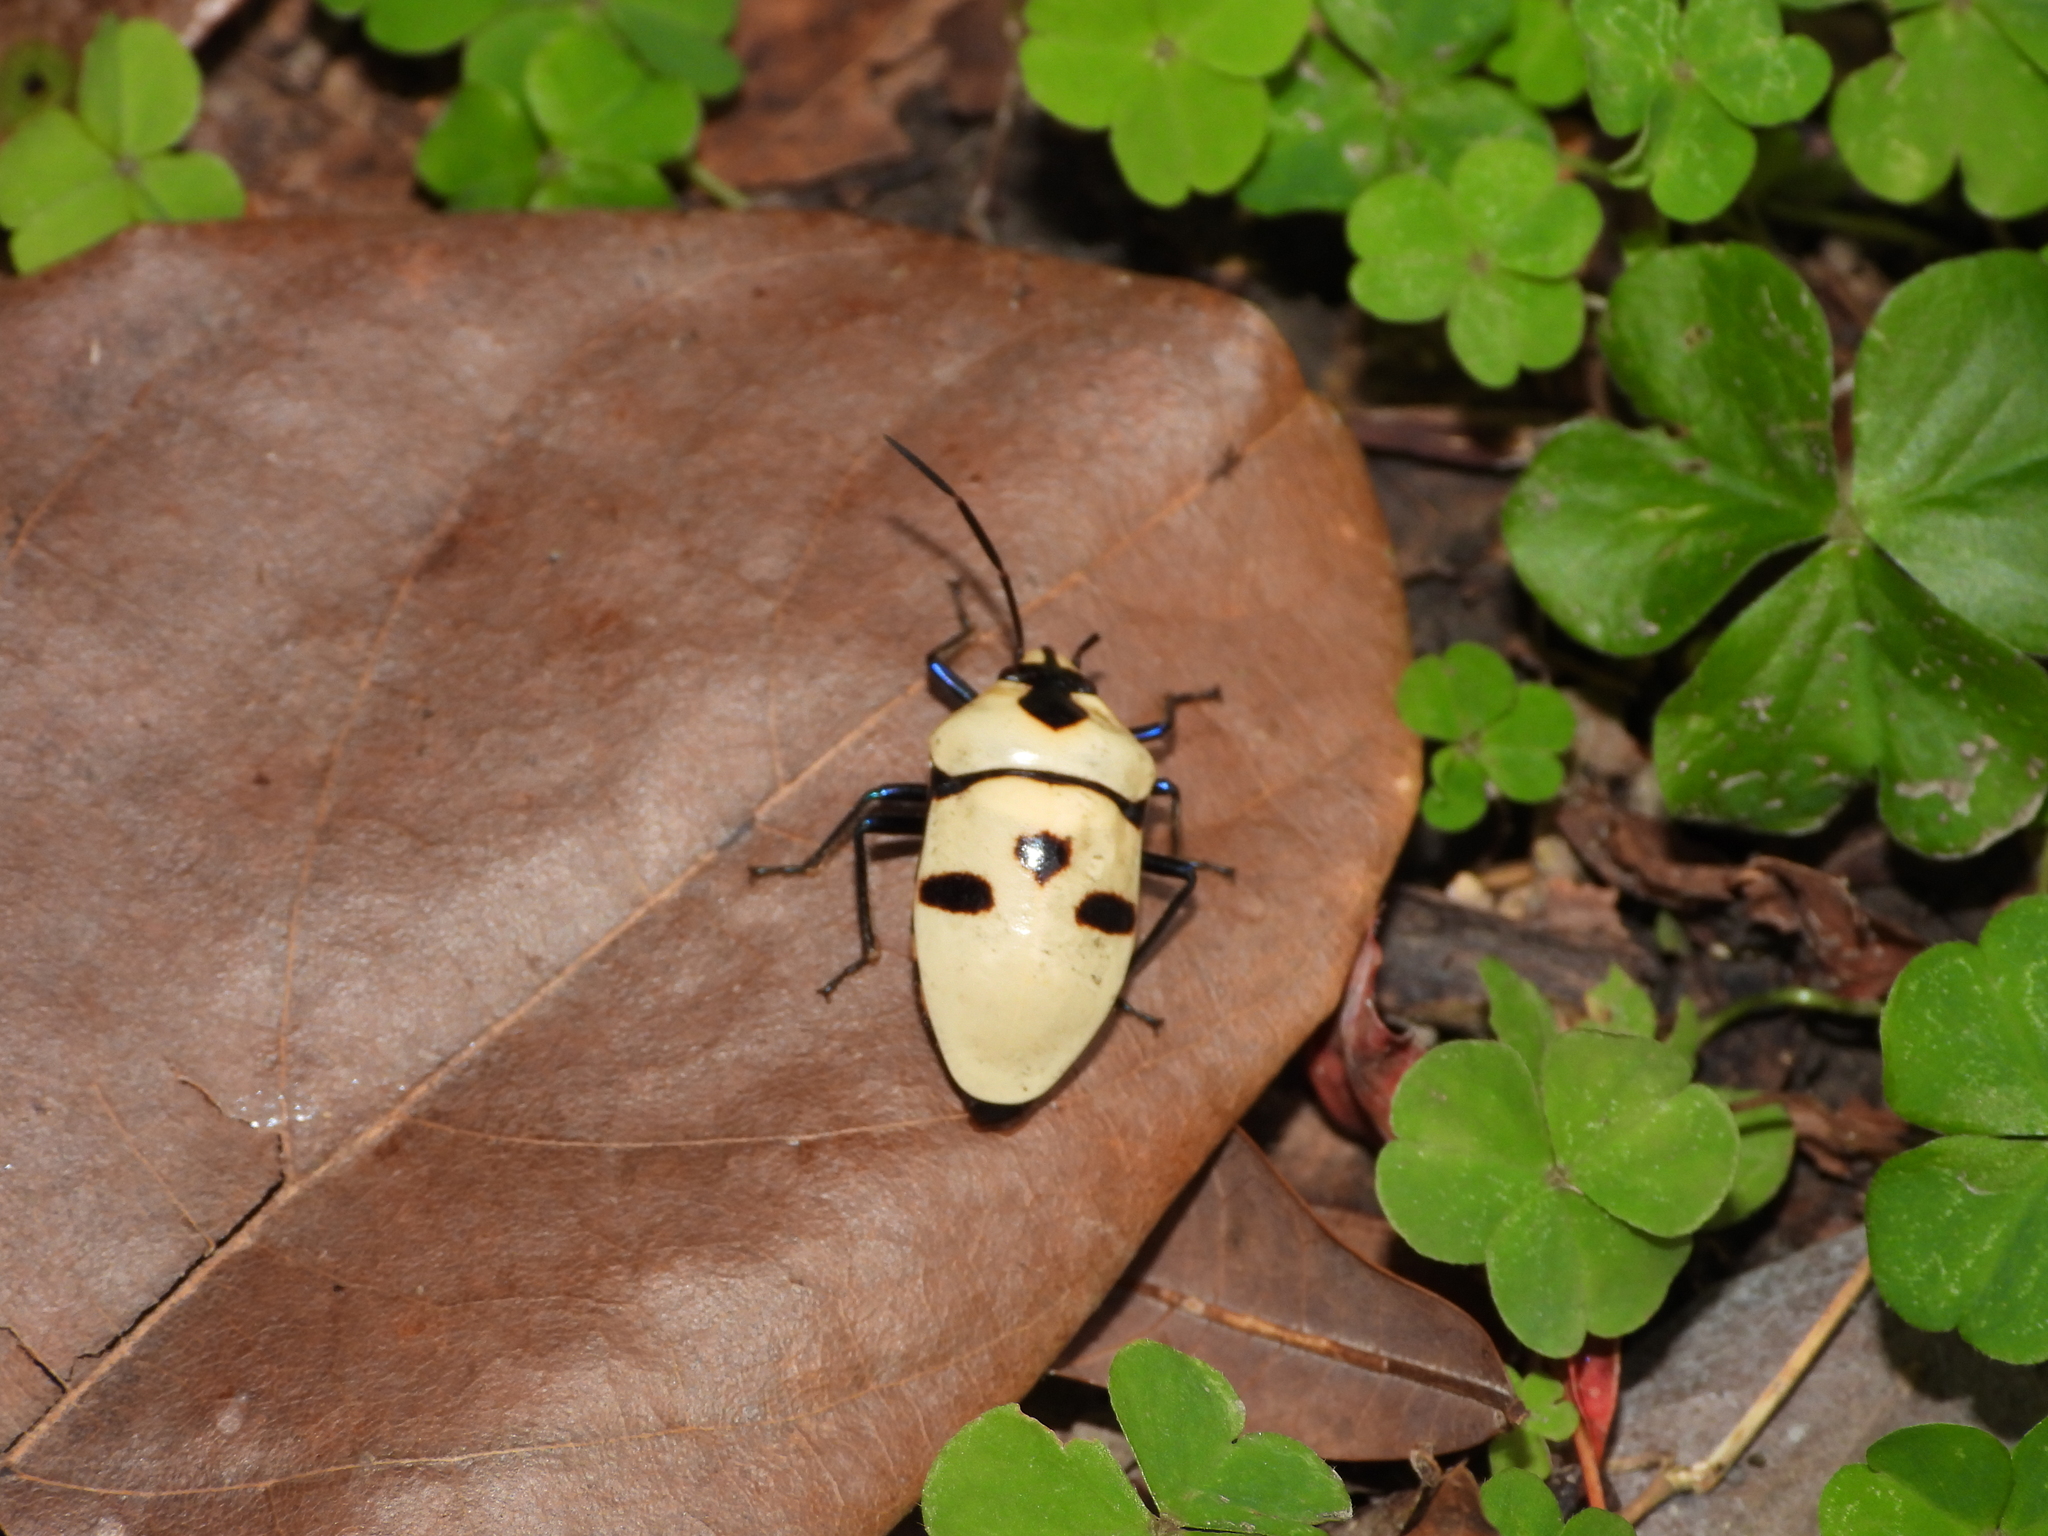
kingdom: Animalia
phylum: Arthropoda
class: Insecta
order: Hemiptera
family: Scutelleridae
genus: Eucorysses
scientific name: Eucorysses grandis
